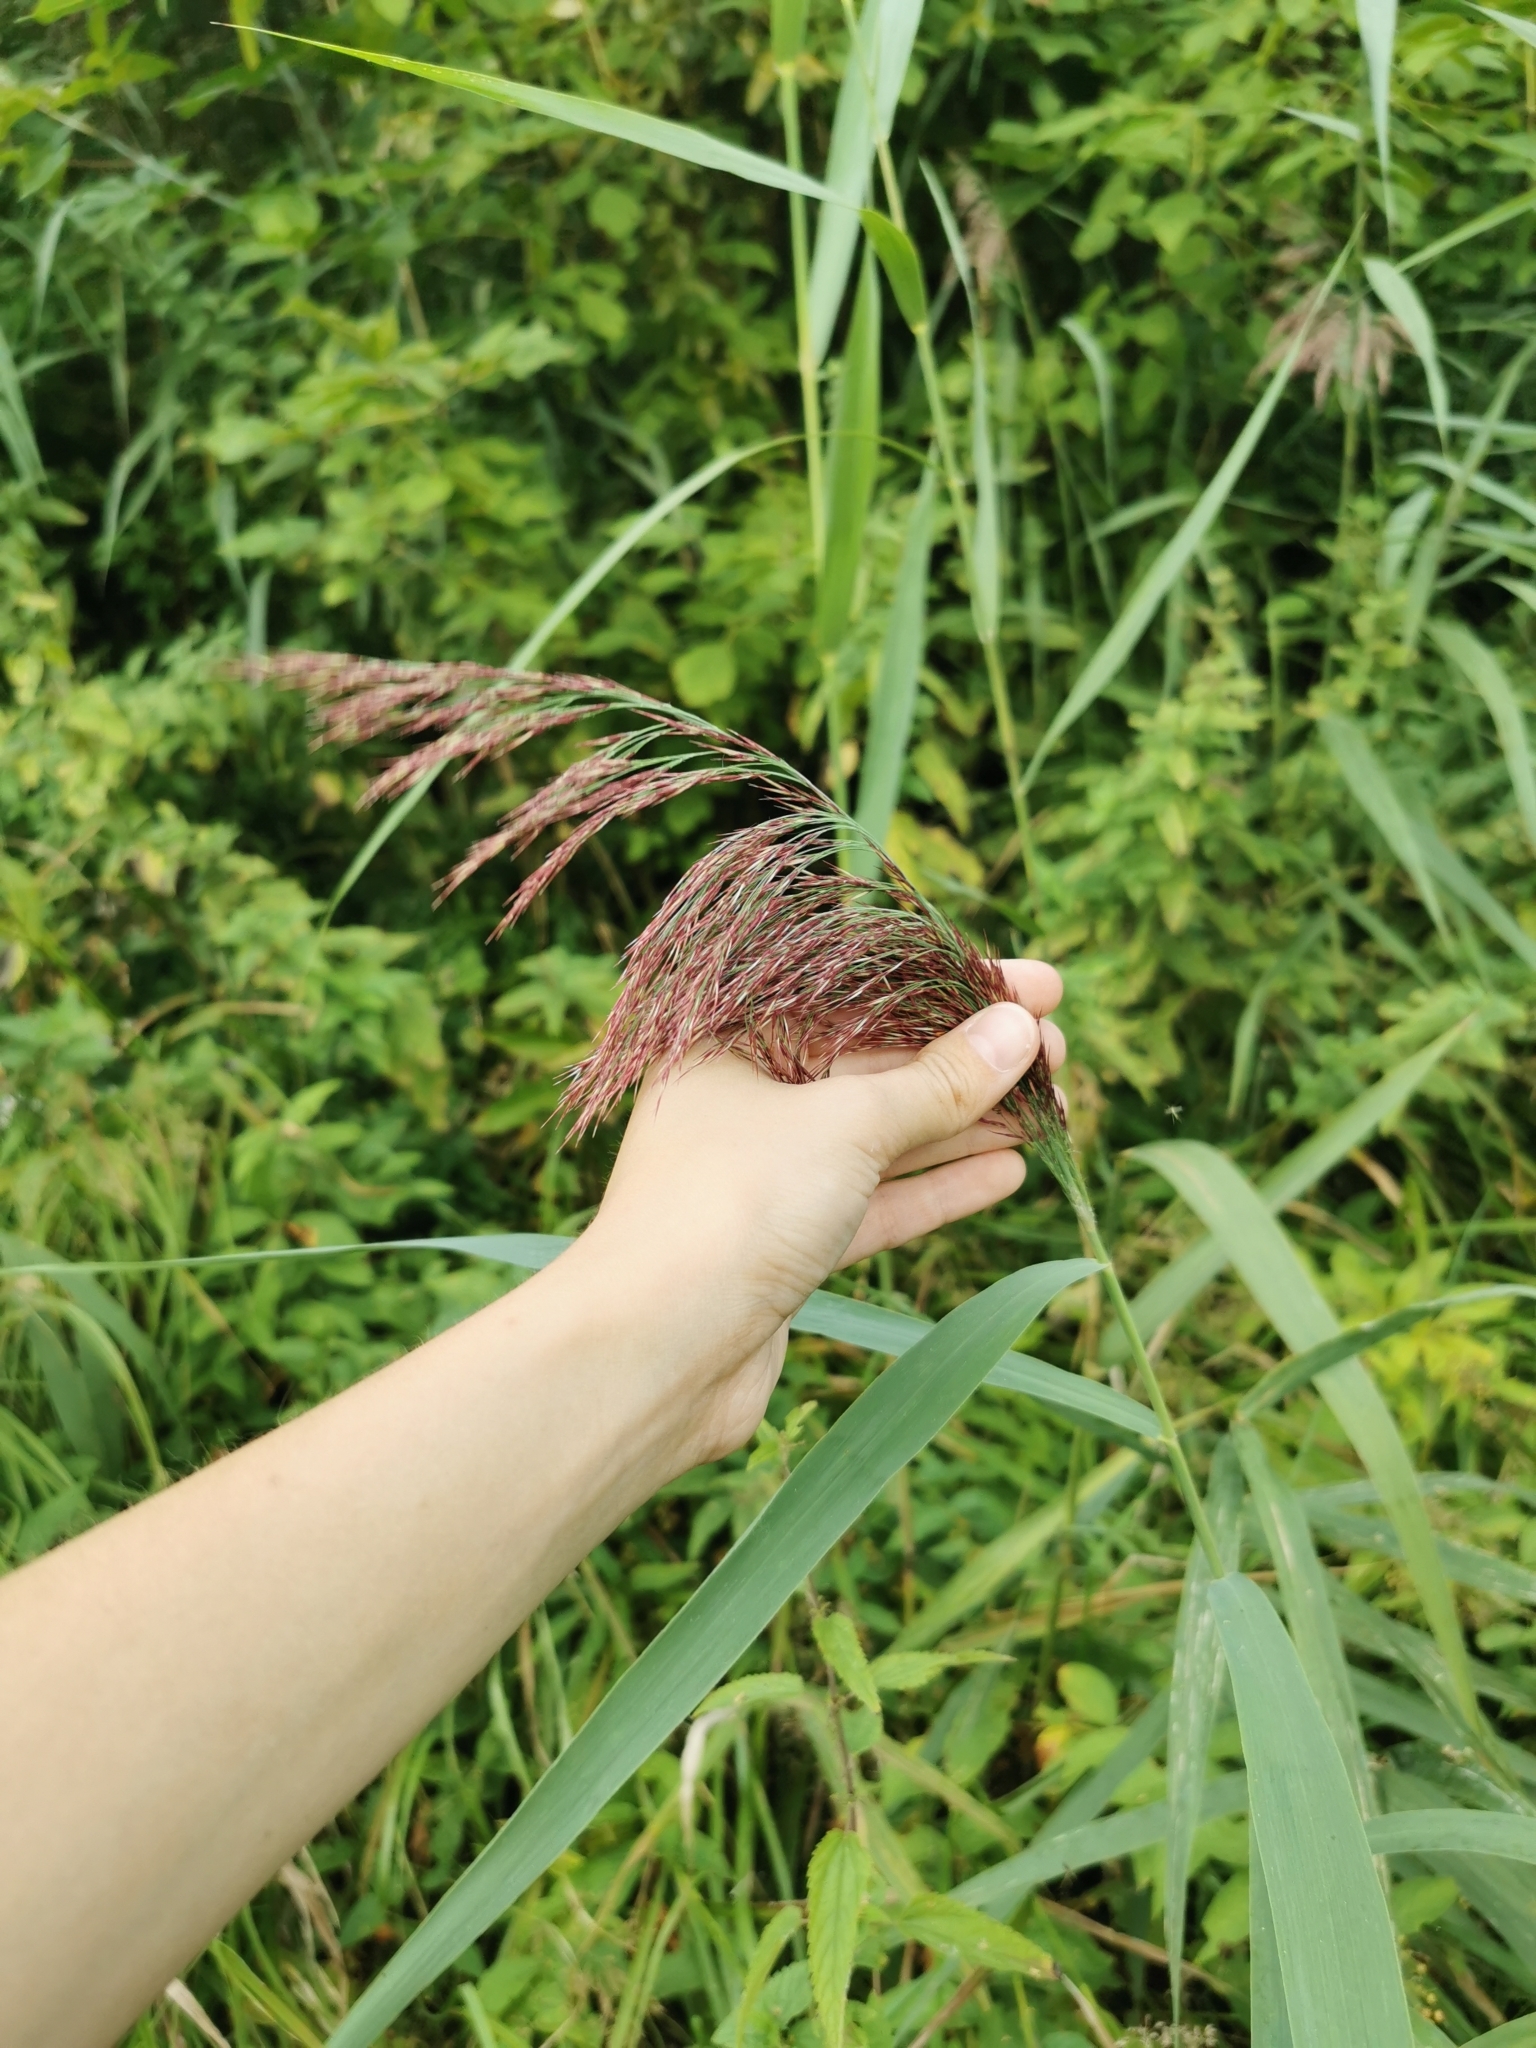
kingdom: Plantae
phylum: Tracheophyta
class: Liliopsida
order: Poales
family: Poaceae
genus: Phragmites
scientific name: Phragmites australis
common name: Common reed
